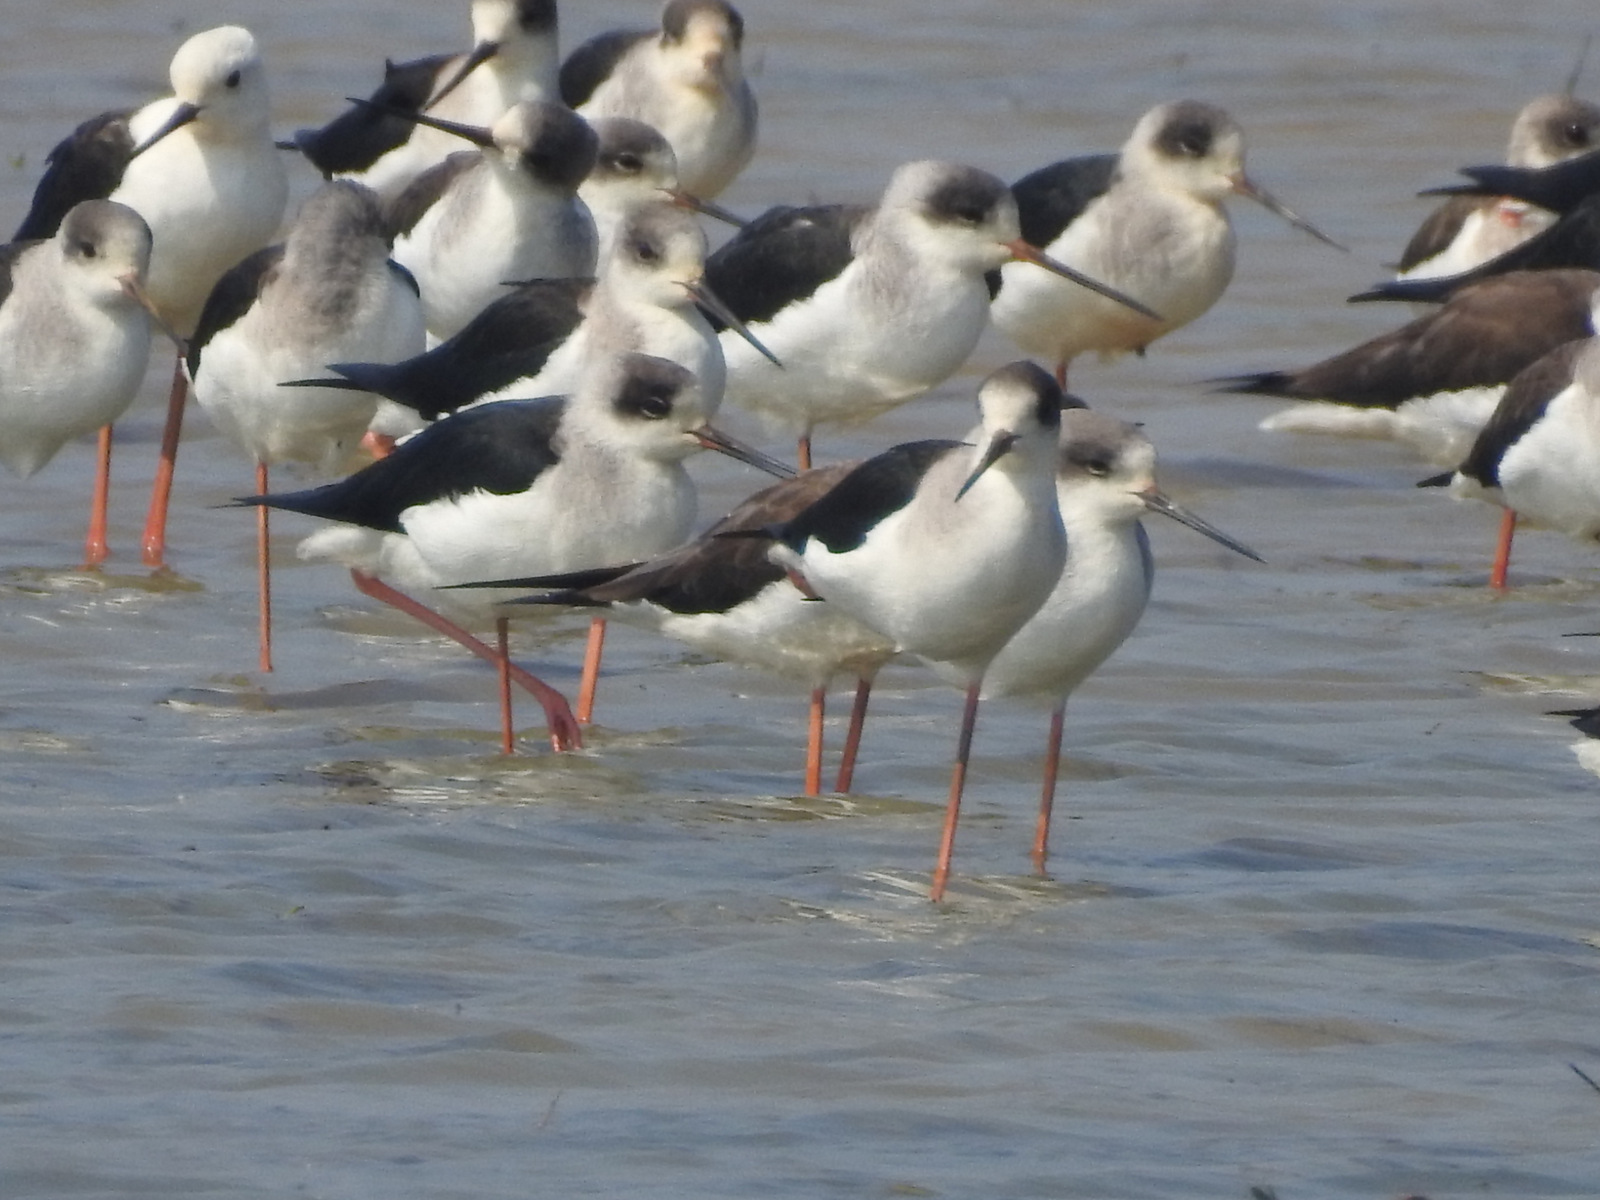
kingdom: Animalia
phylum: Chordata
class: Aves
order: Charadriiformes
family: Recurvirostridae
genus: Himantopus
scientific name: Himantopus himantopus
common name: Black-winged stilt
